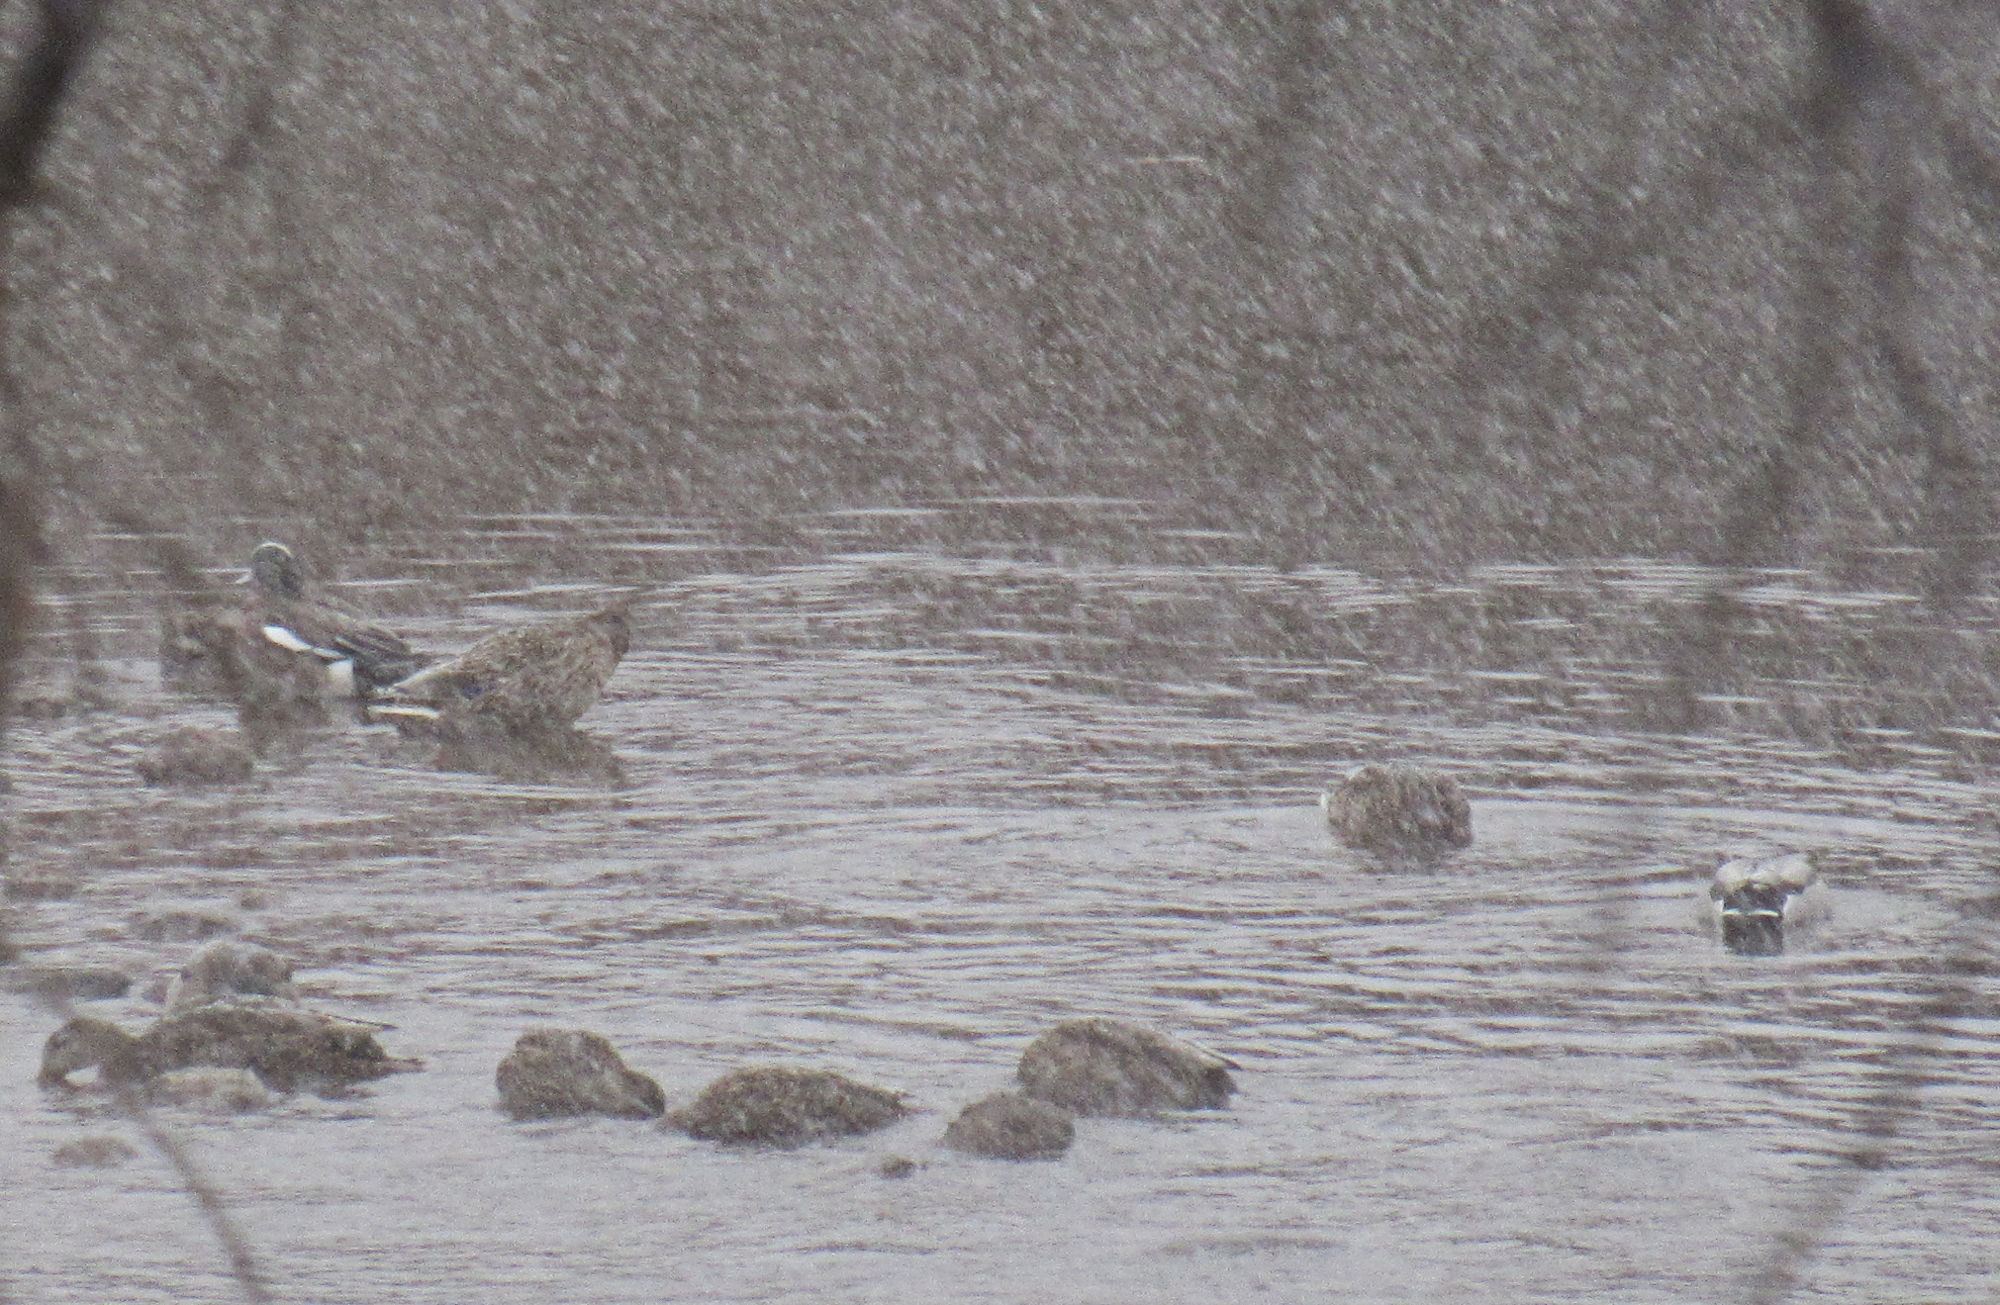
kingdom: Animalia
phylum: Chordata
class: Aves
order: Anseriformes
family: Anatidae
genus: Anas
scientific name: Anas platyrhynchos
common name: Mallard
